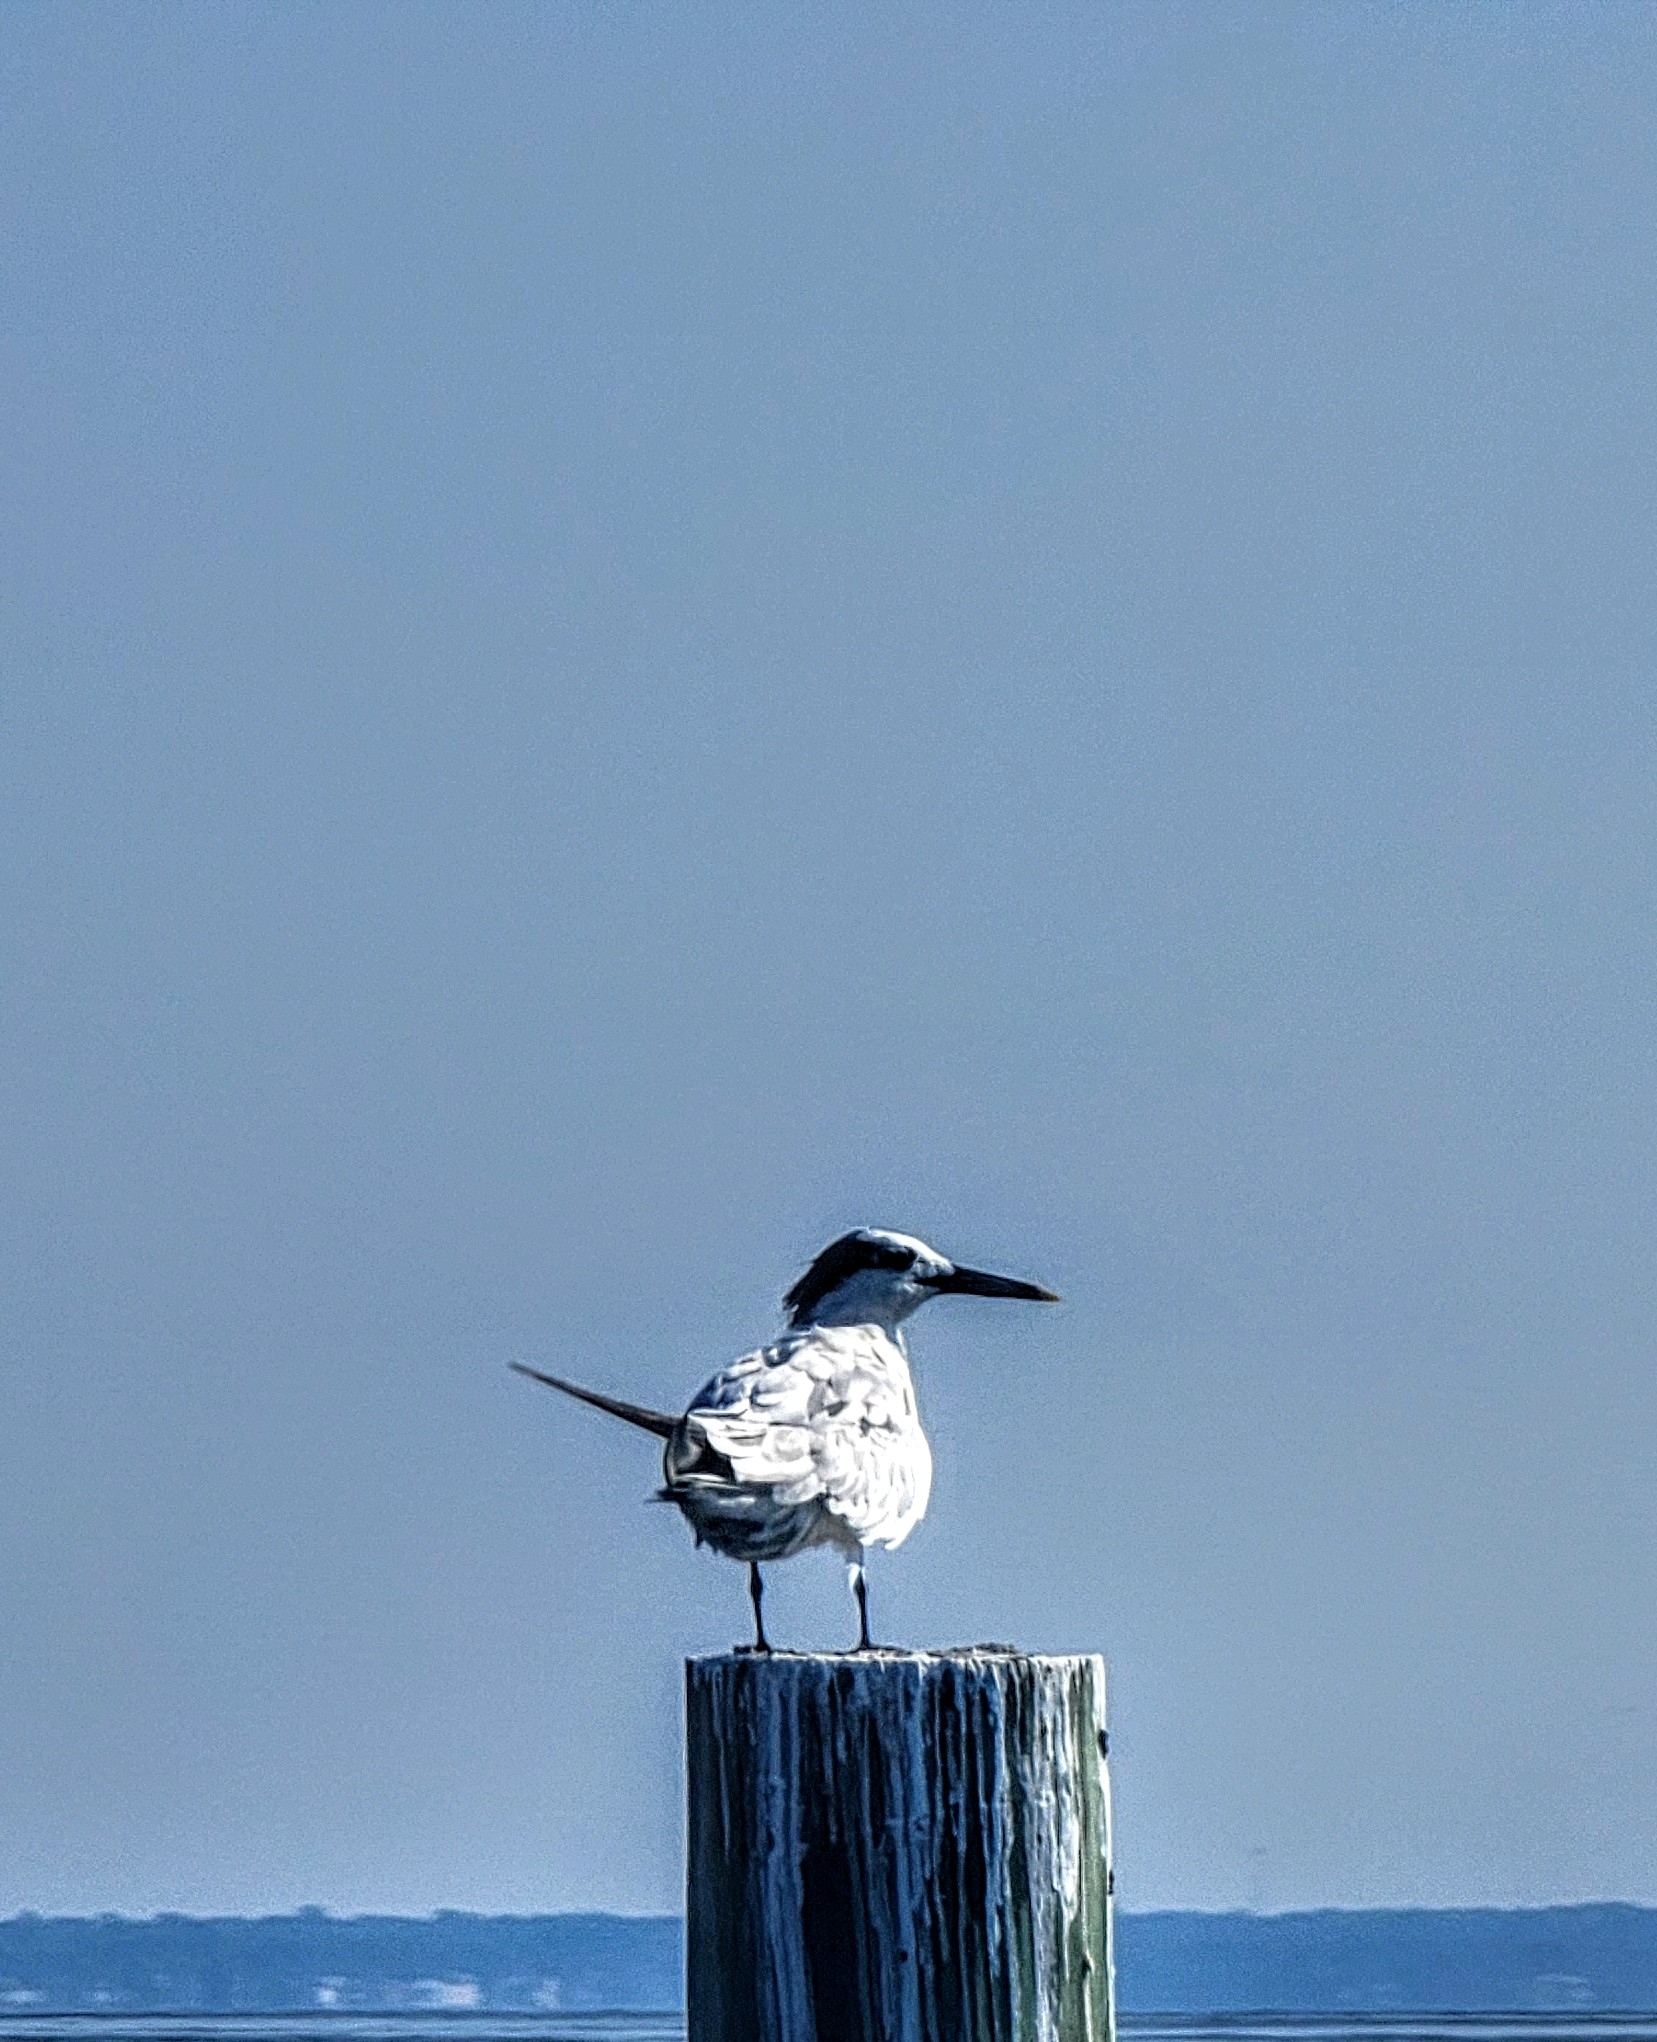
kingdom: Animalia
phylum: Chordata
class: Aves
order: Charadriiformes
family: Laridae
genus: Thalasseus
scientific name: Thalasseus sandvicensis
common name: Sandwich tern
